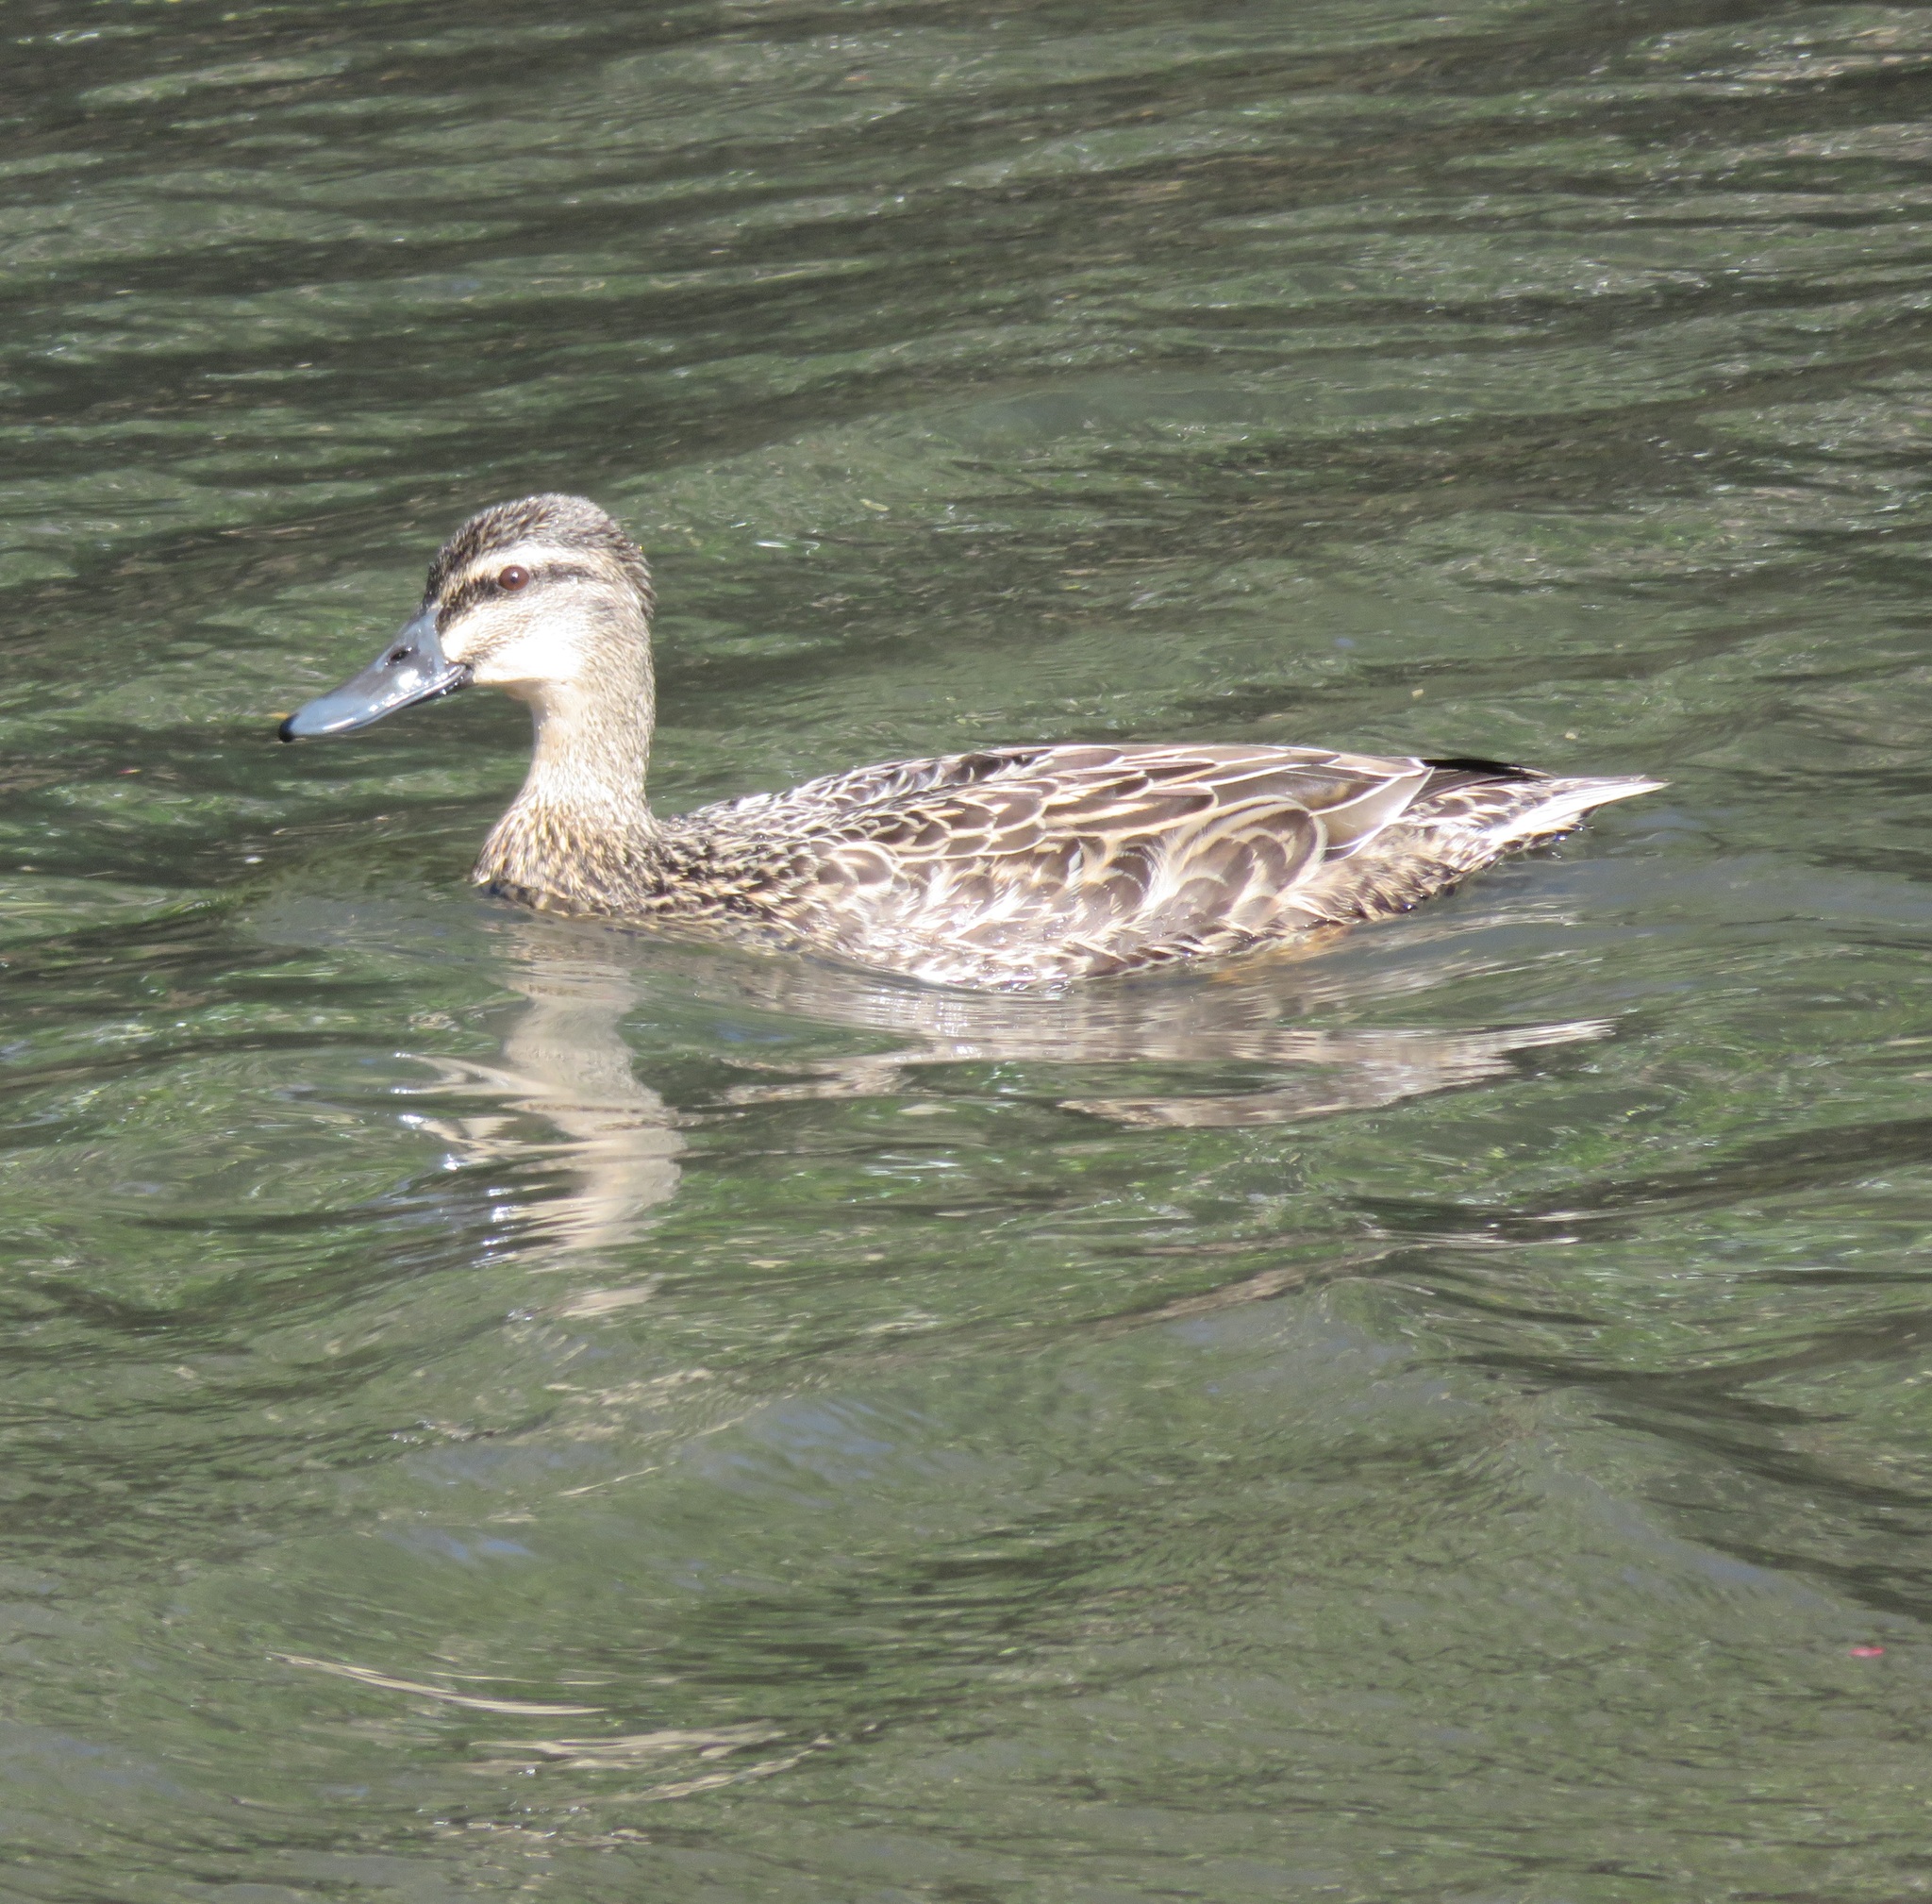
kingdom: Animalia
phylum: Chordata
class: Aves
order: Anseriformes
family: Anatidae
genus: Anas
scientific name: Anas
